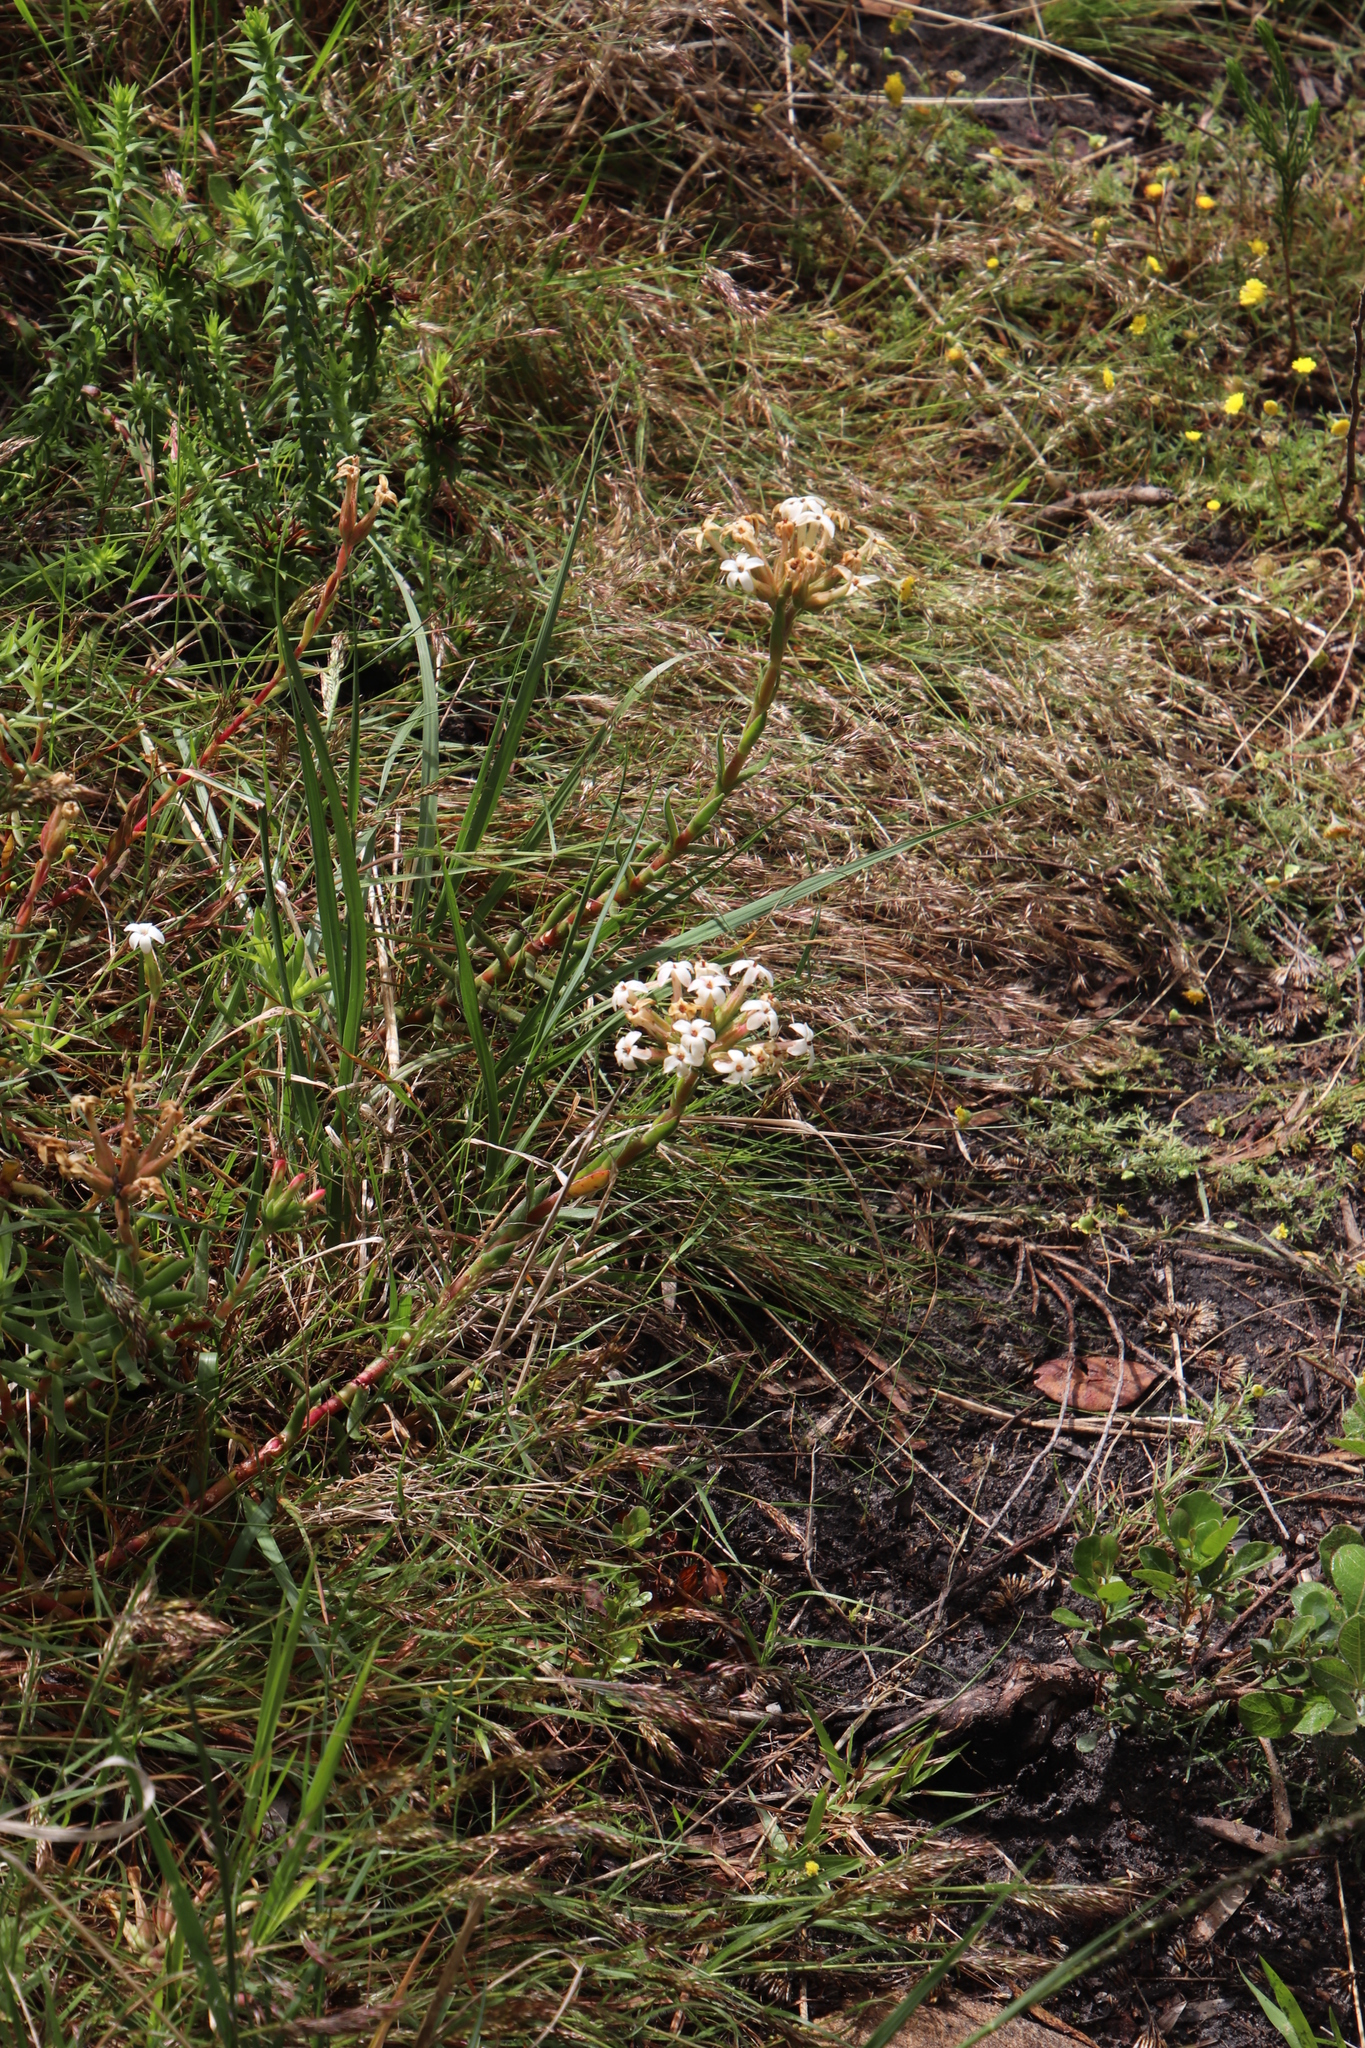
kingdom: Plantae
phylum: Tracheophyta
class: Magnoliopsida
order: Saxifragales
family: Crassulaceae
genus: Crassula
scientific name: Crassula fascicularis
